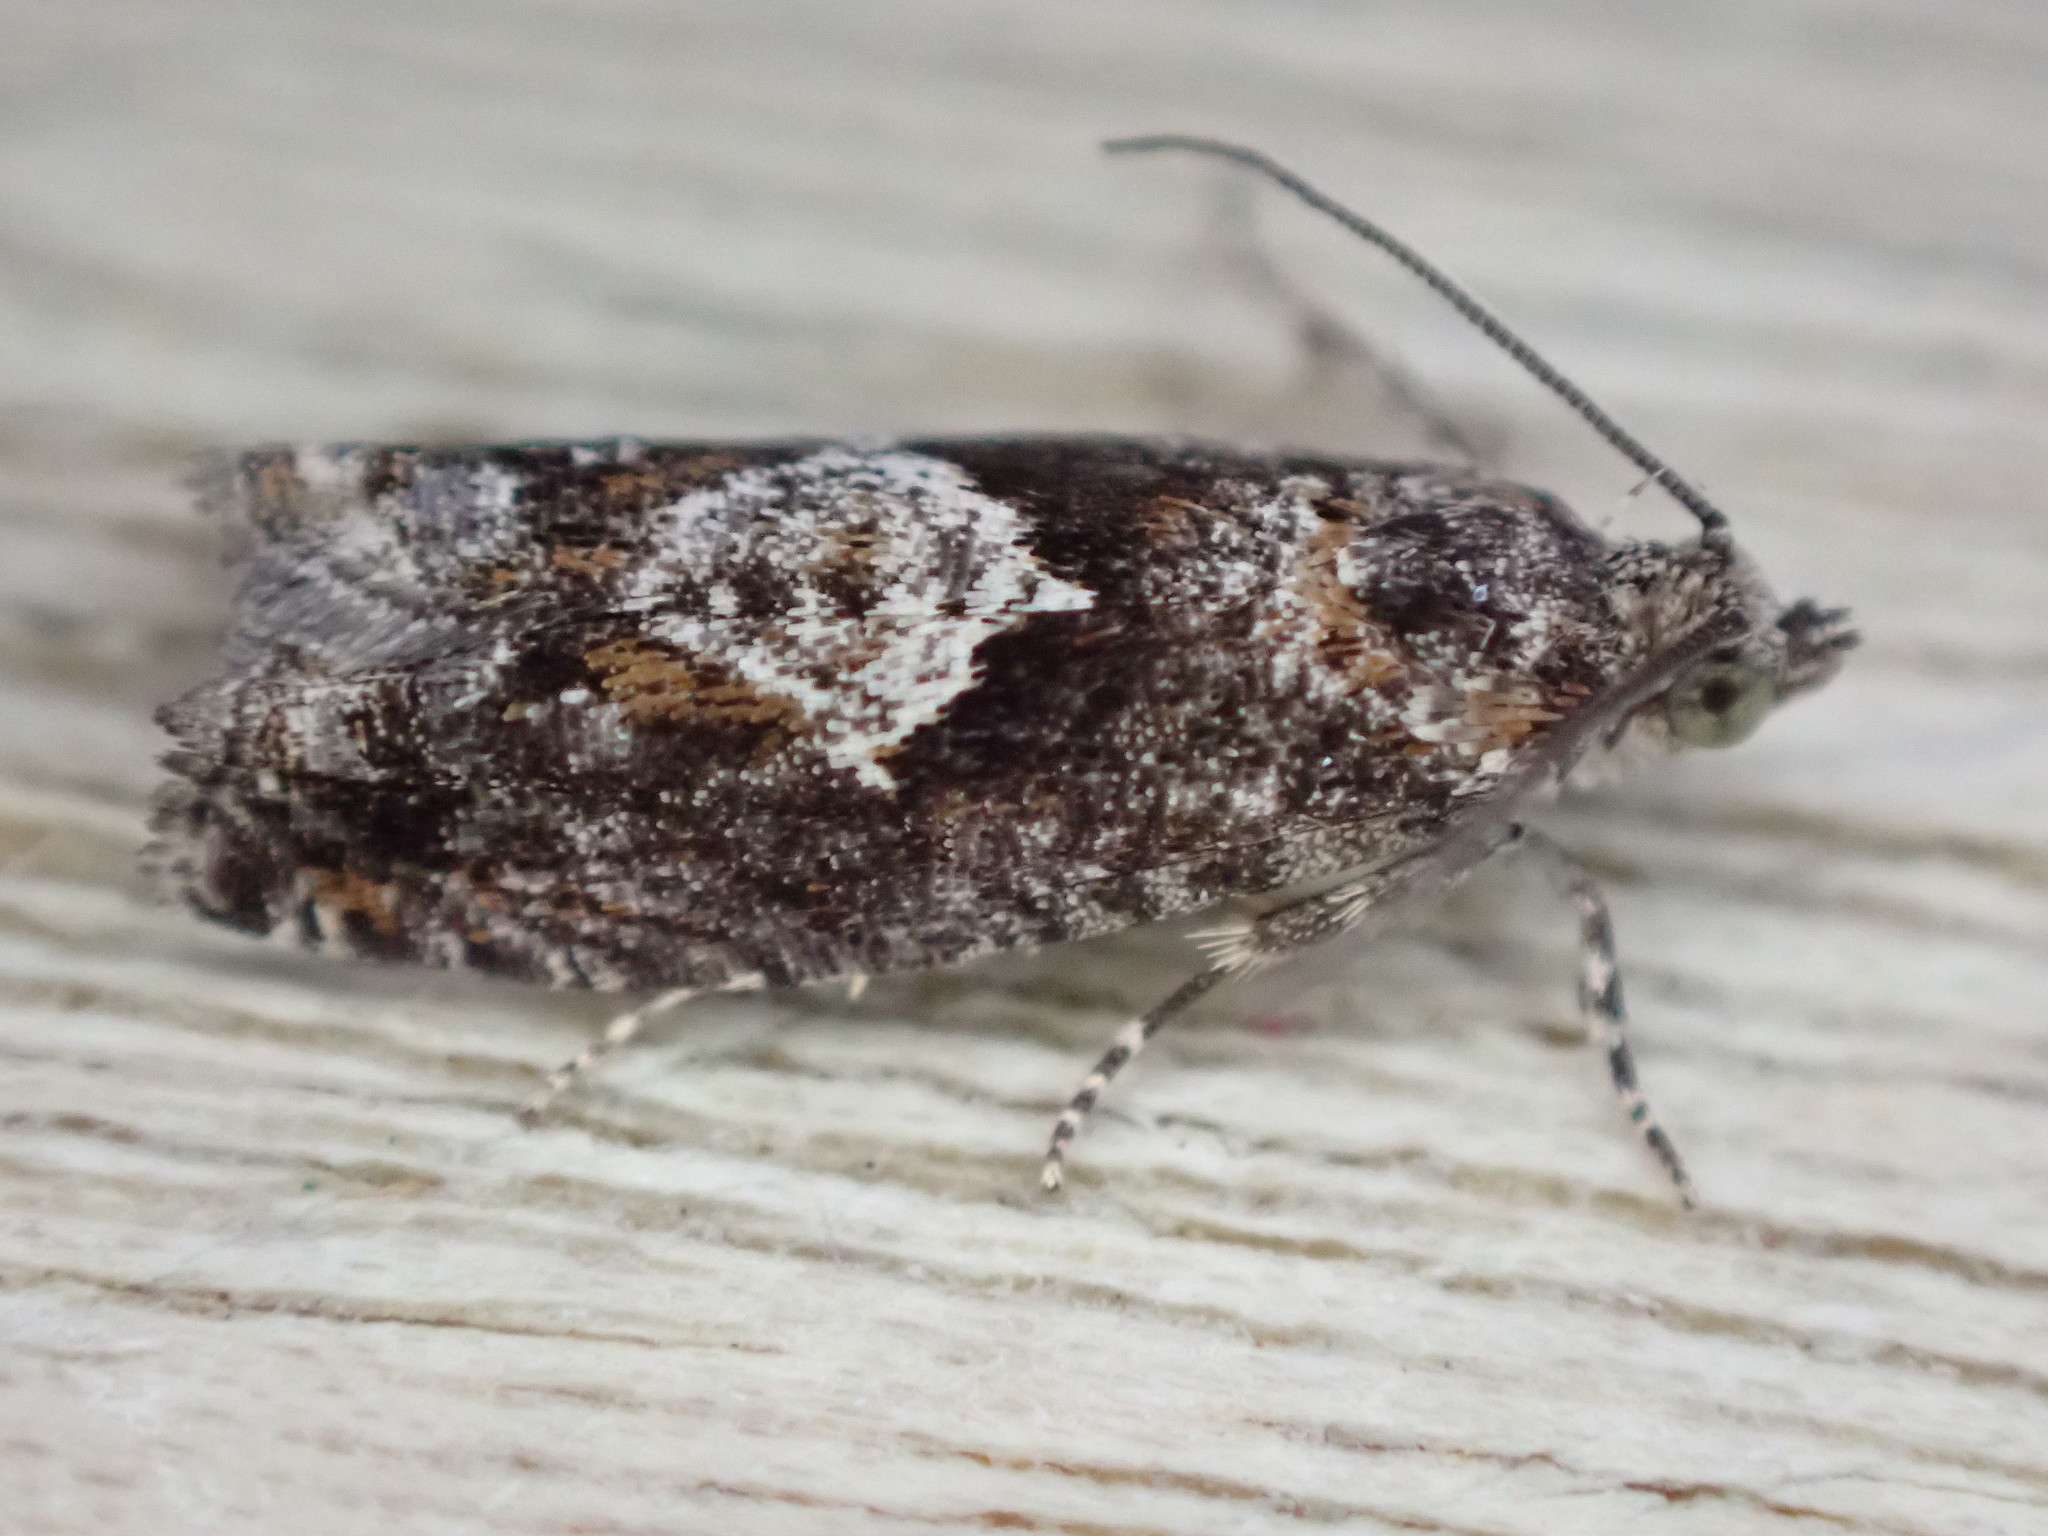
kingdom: Animalia
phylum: Arthropoda
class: Insecta
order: Lepidoptera
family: Tortricidae
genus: Epinotia
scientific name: Epinotia immundana
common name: Common birch bell
